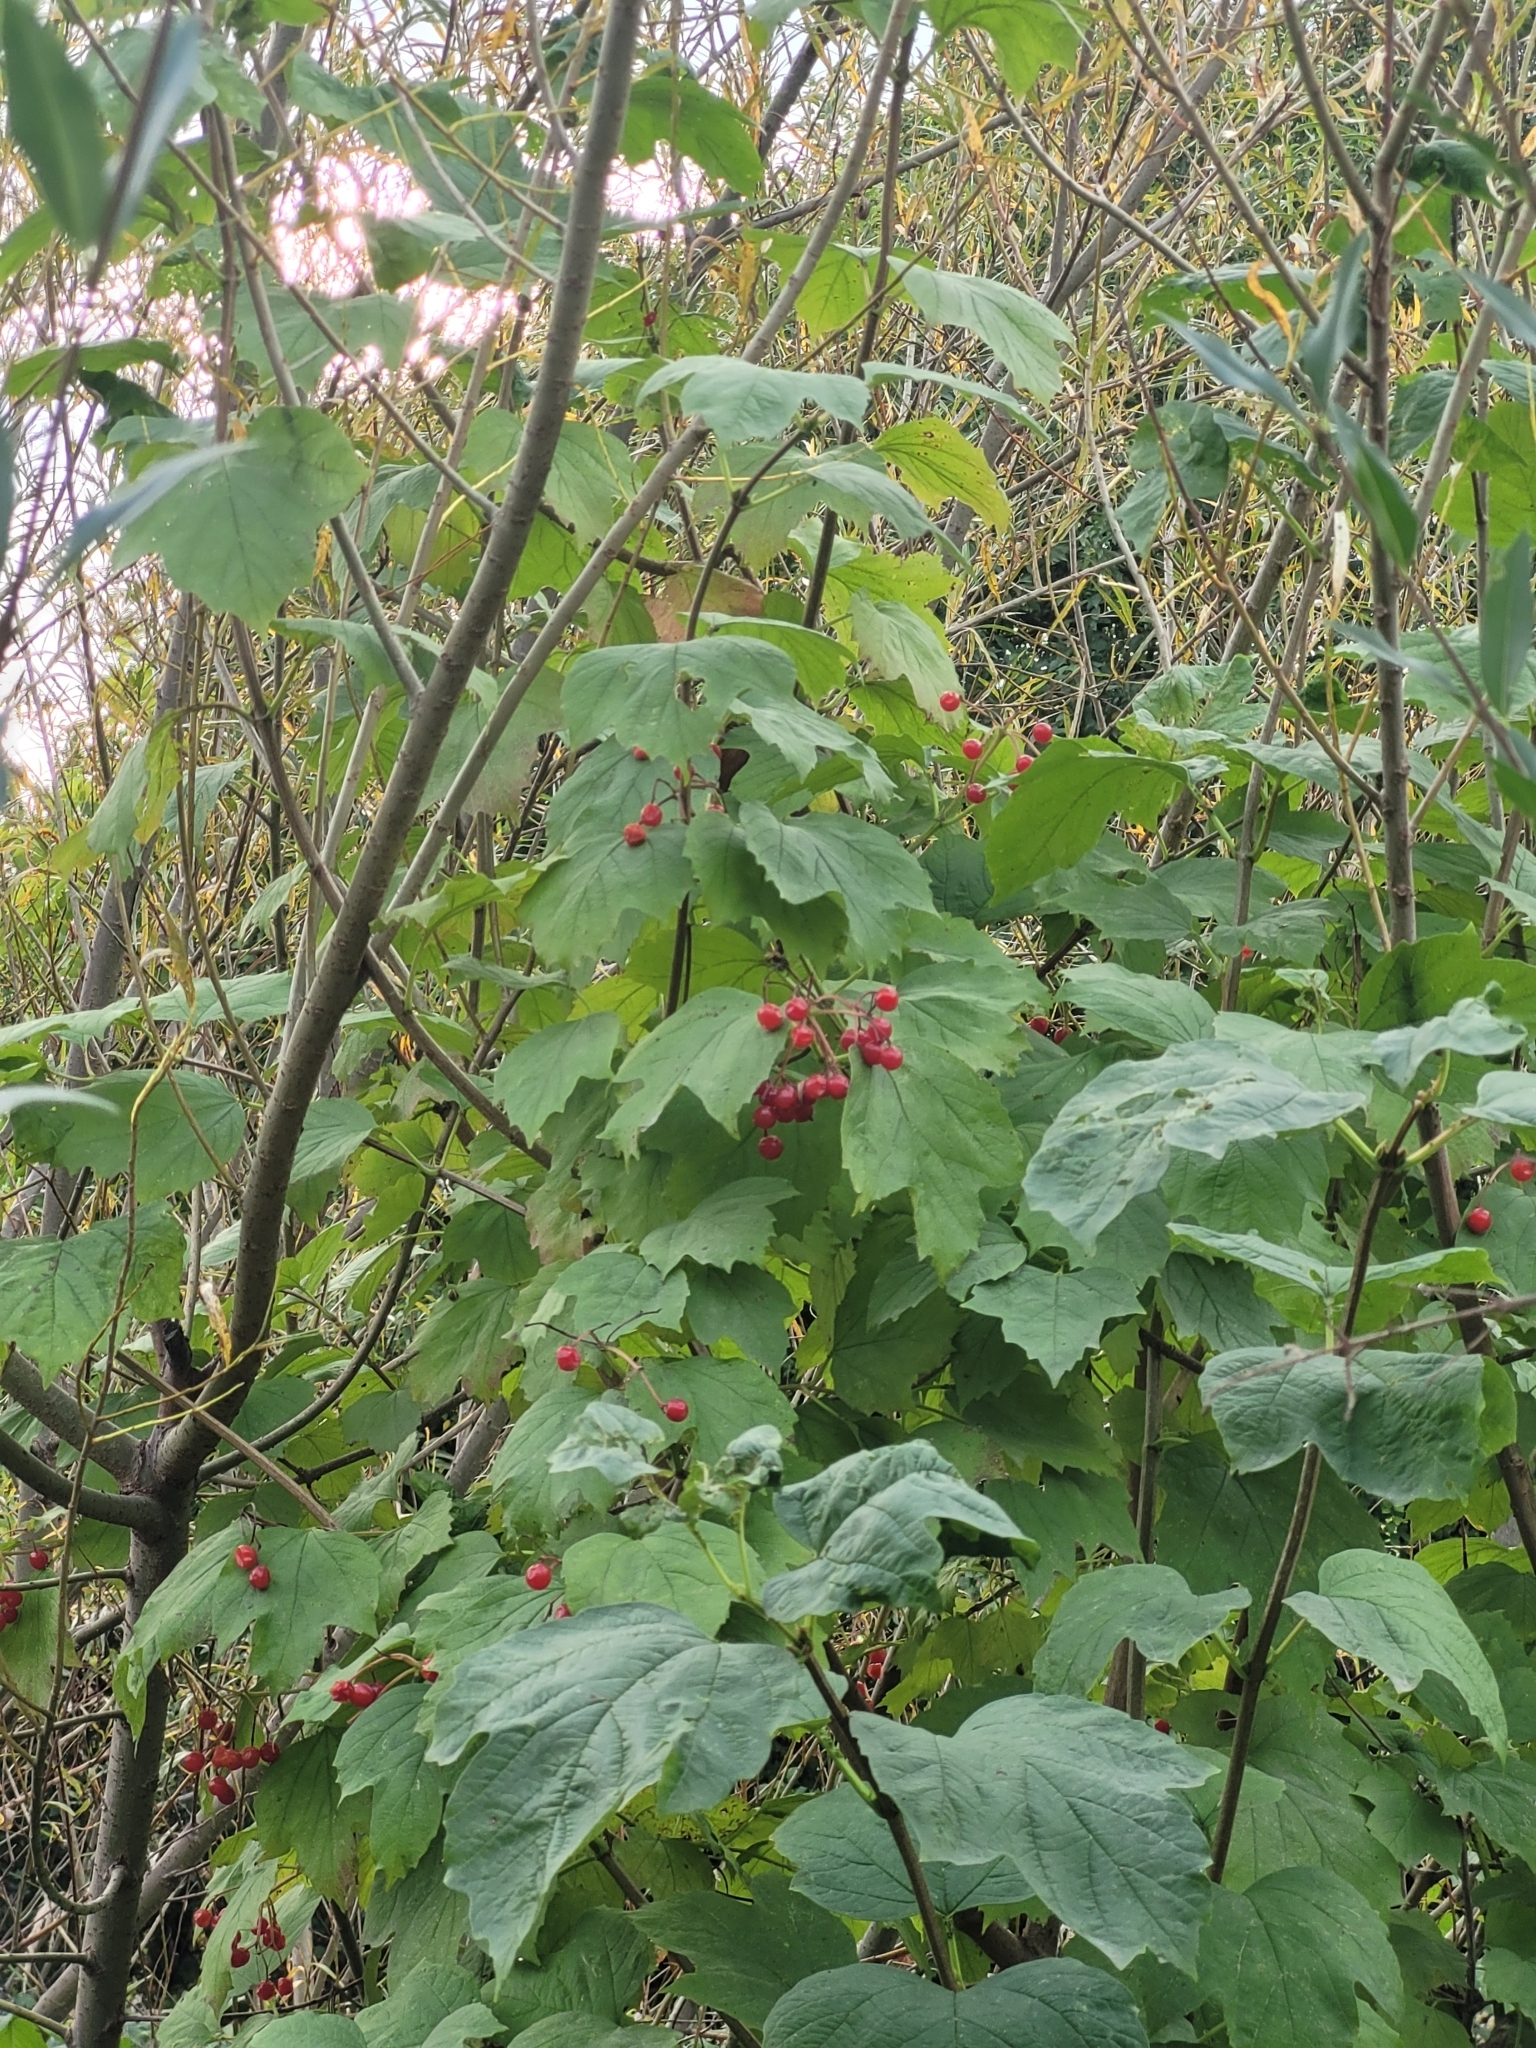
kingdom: Plantae
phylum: Tracheophyta
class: Magnoliopsida
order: Dipsacales
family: Viburnaceae
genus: Viburnum
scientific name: Viburnum opulus
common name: Guelder-rose
